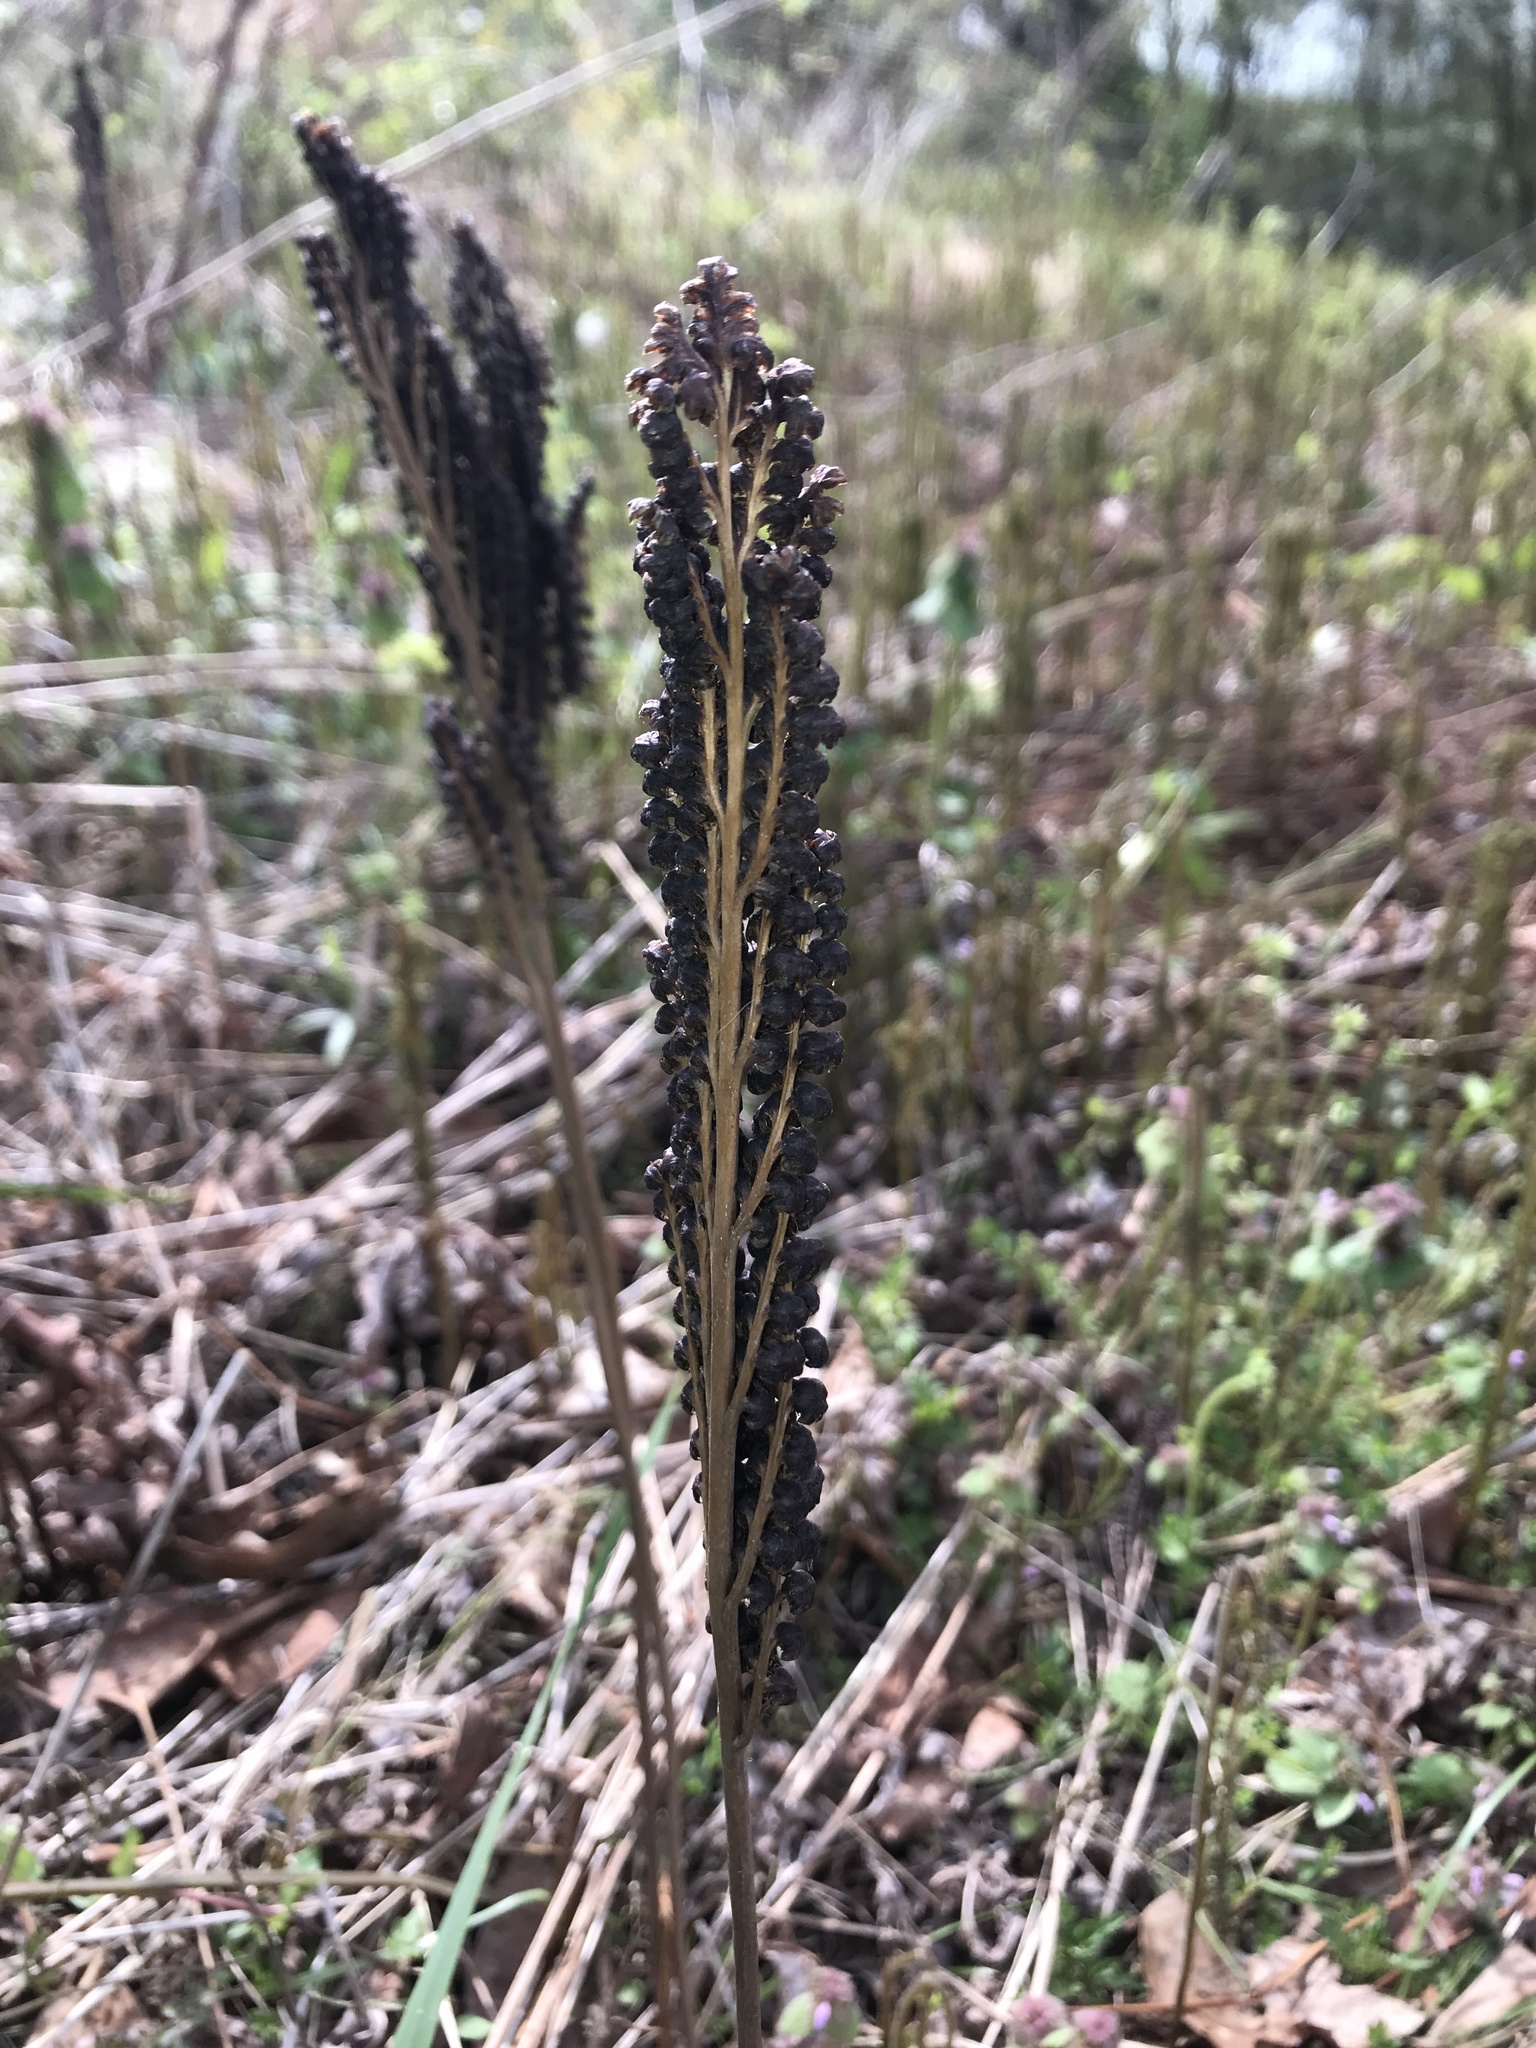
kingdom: Plantae
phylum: Tracheophyta
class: Polypodiopsida
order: Polypodiales
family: Onocleaceae
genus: Onoclea
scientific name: Onoclea sensibilis
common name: Sensitive fern
